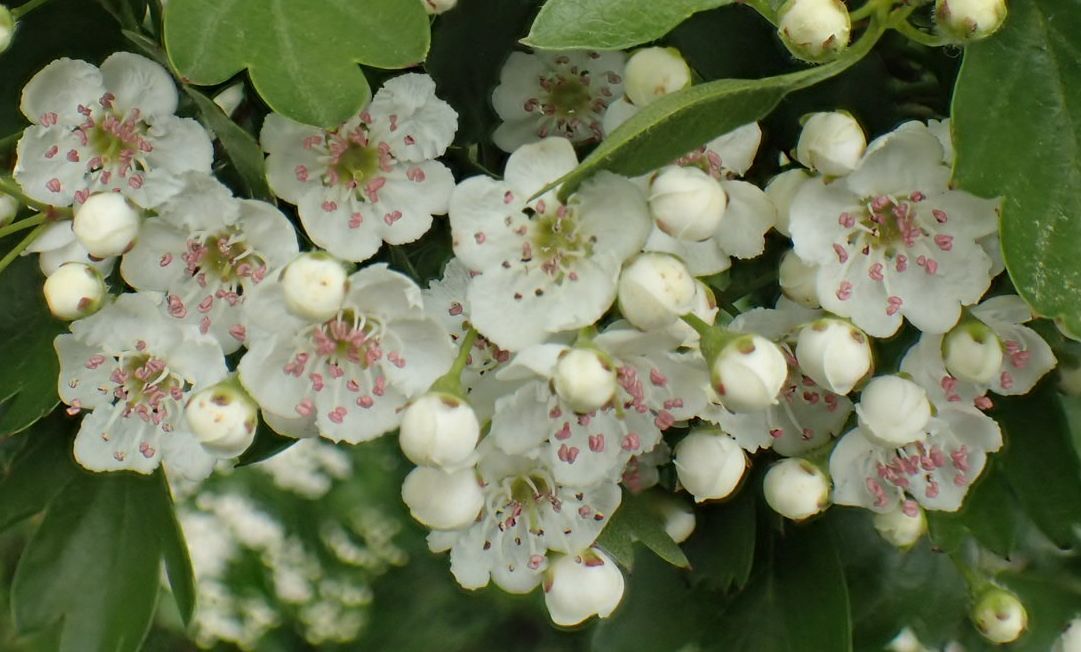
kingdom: Plantae
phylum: Tracheophyta
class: Magnoliopsida
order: Rosales
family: Rosaceae
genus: Crataegus
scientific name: Crataegus monogyna
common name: Hawthorn
